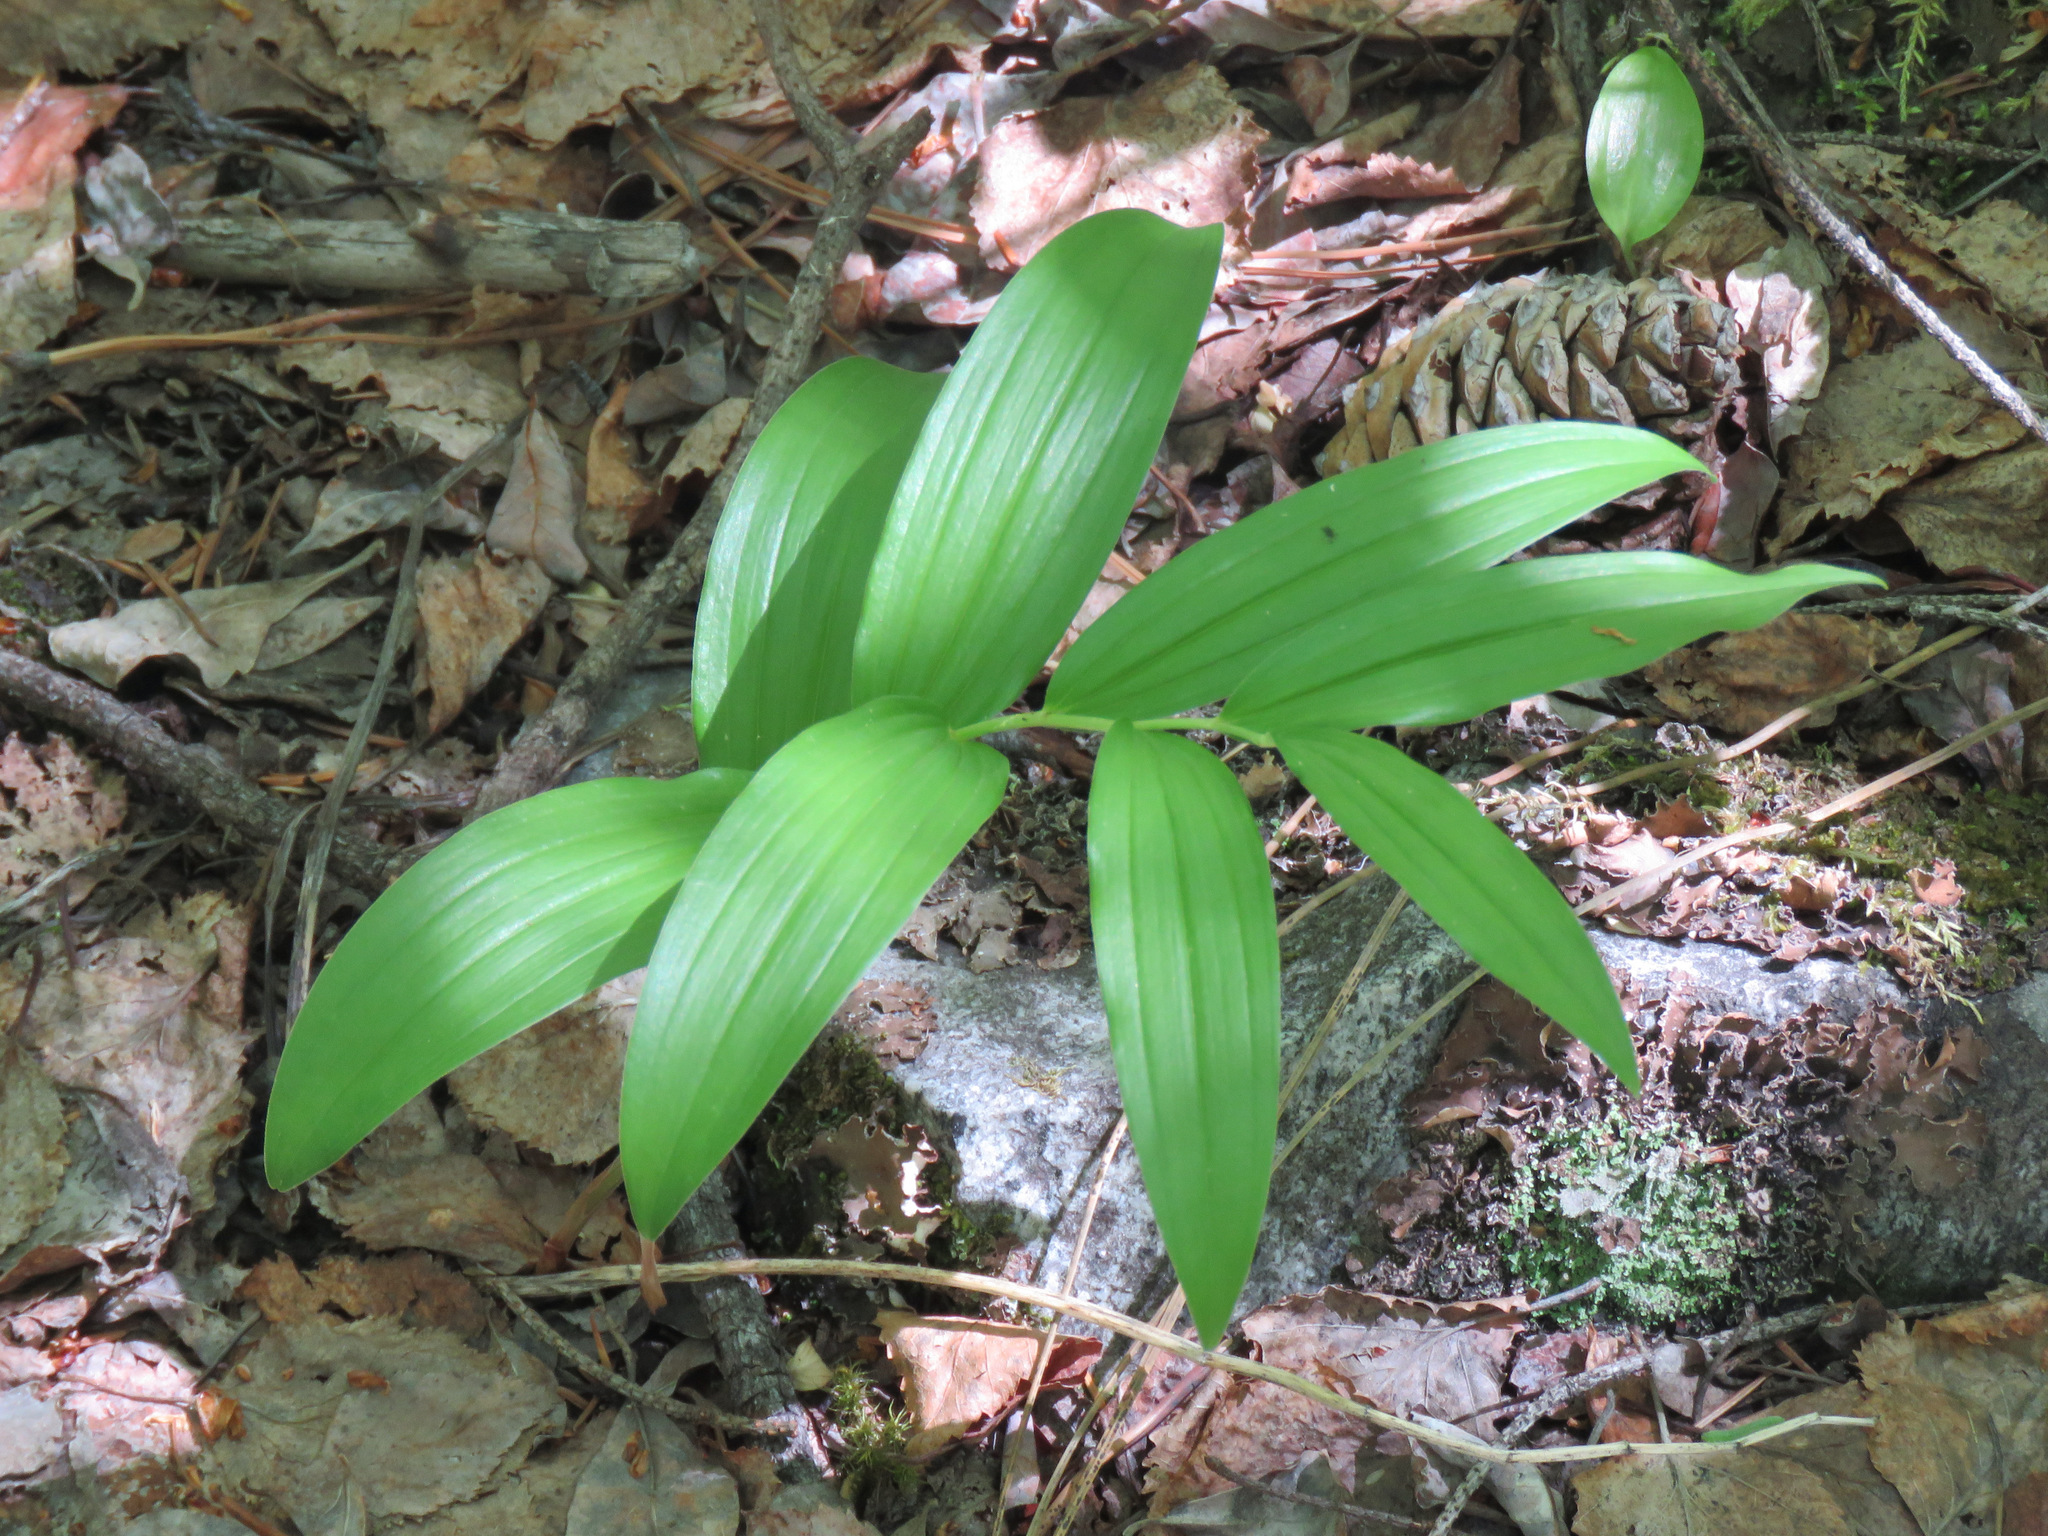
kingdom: Plantae
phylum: Tracheophyta
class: Liliopsida
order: Asparagales
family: Asparagaceae
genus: Maianthemum
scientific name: Maianthemum stellatum
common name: Little false solomon's seal
